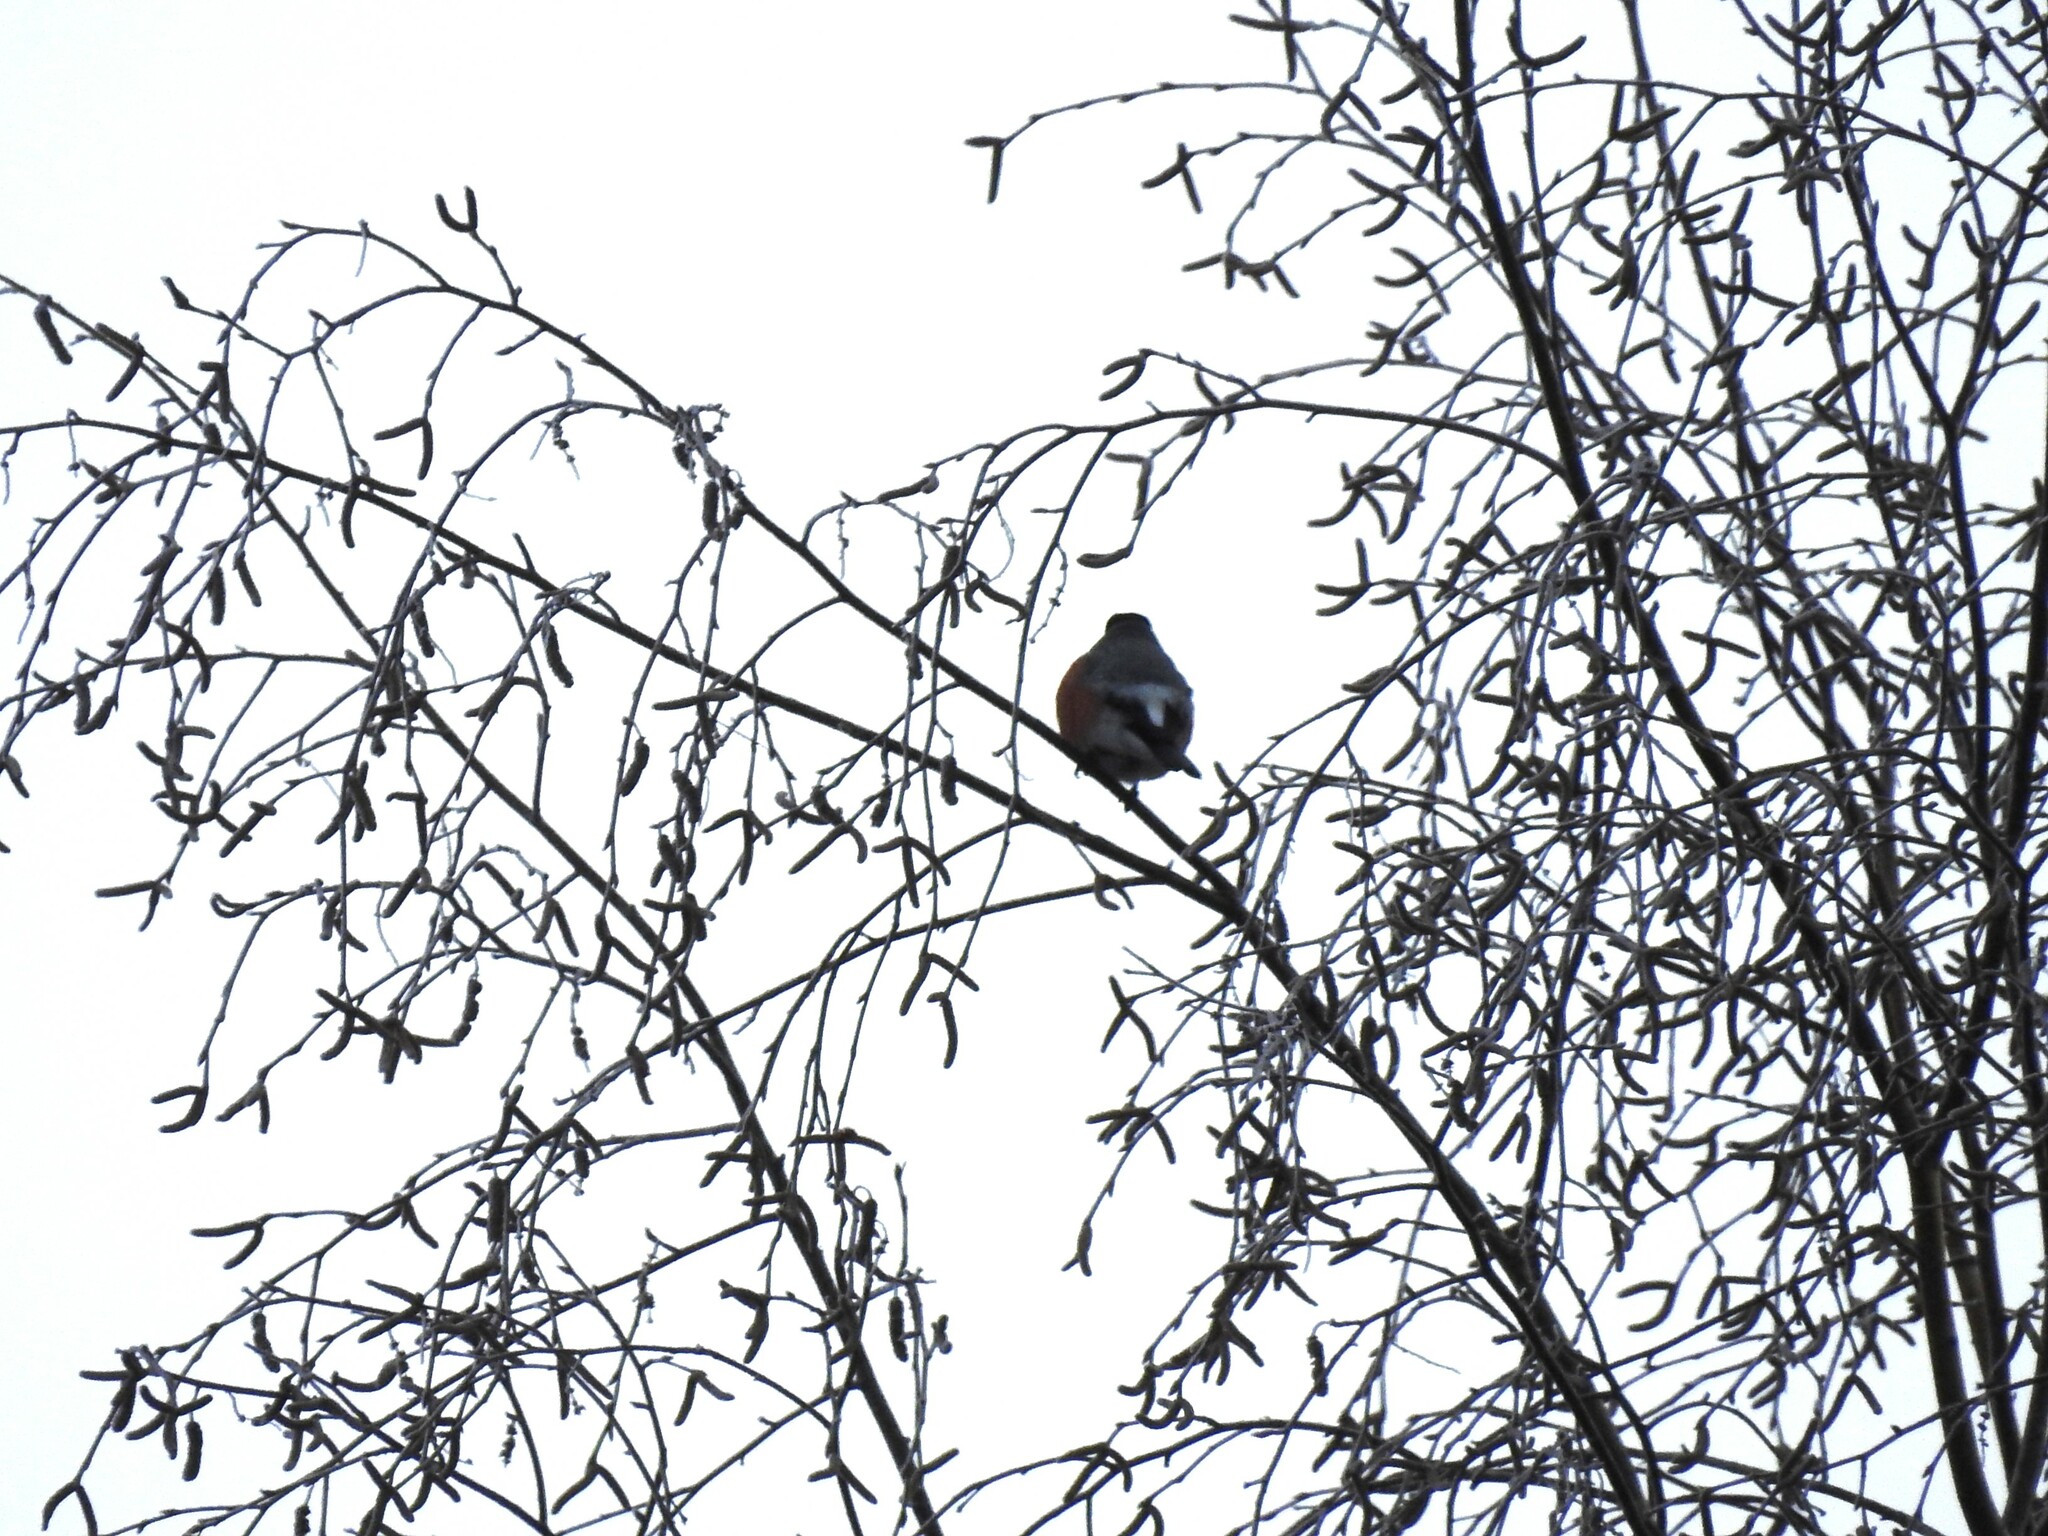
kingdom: Animalia
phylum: Chordata
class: Aves
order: Passeriformes
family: Fringillidae
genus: Pyrrhula
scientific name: Pyrrhula pyrrhula
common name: Eurasian bullfinch
